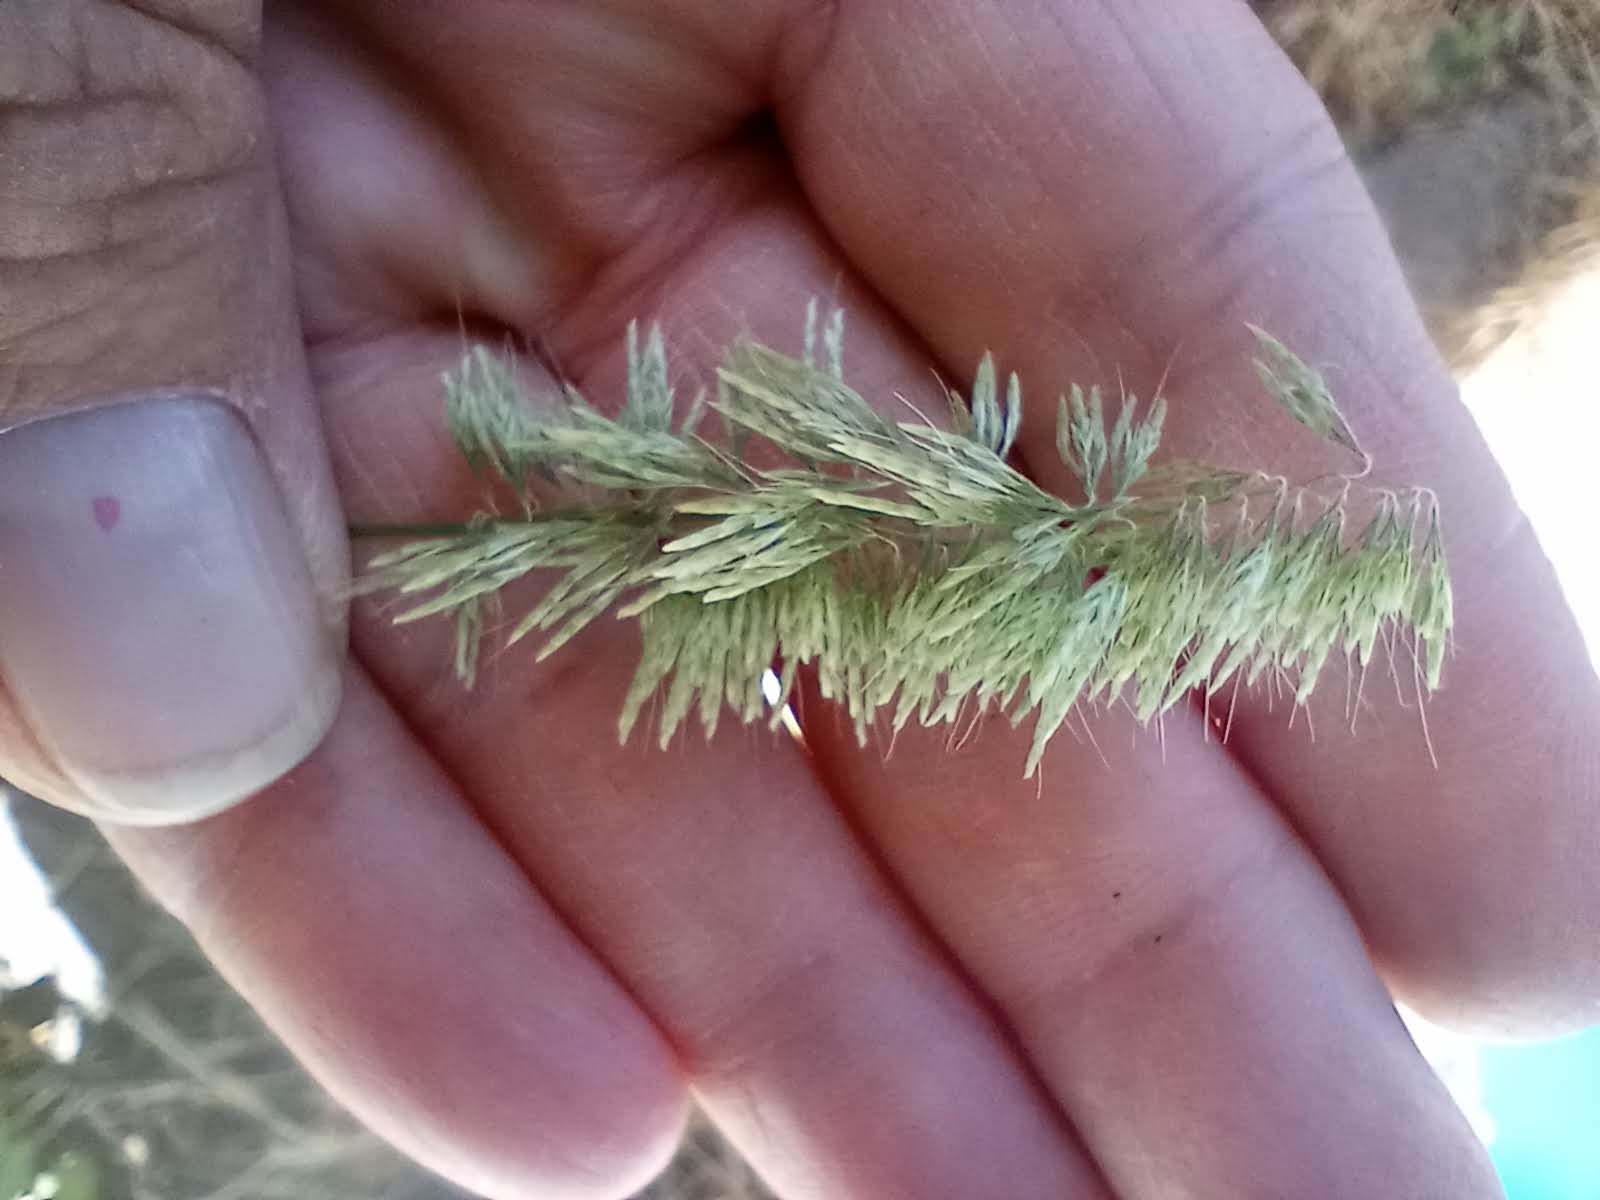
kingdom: Plantae
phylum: Tracheophyta
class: Liliopsida
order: Poales
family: Poaceae
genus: Lamarckia
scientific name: Lamarckia aurea
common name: Golden dog's-tail
